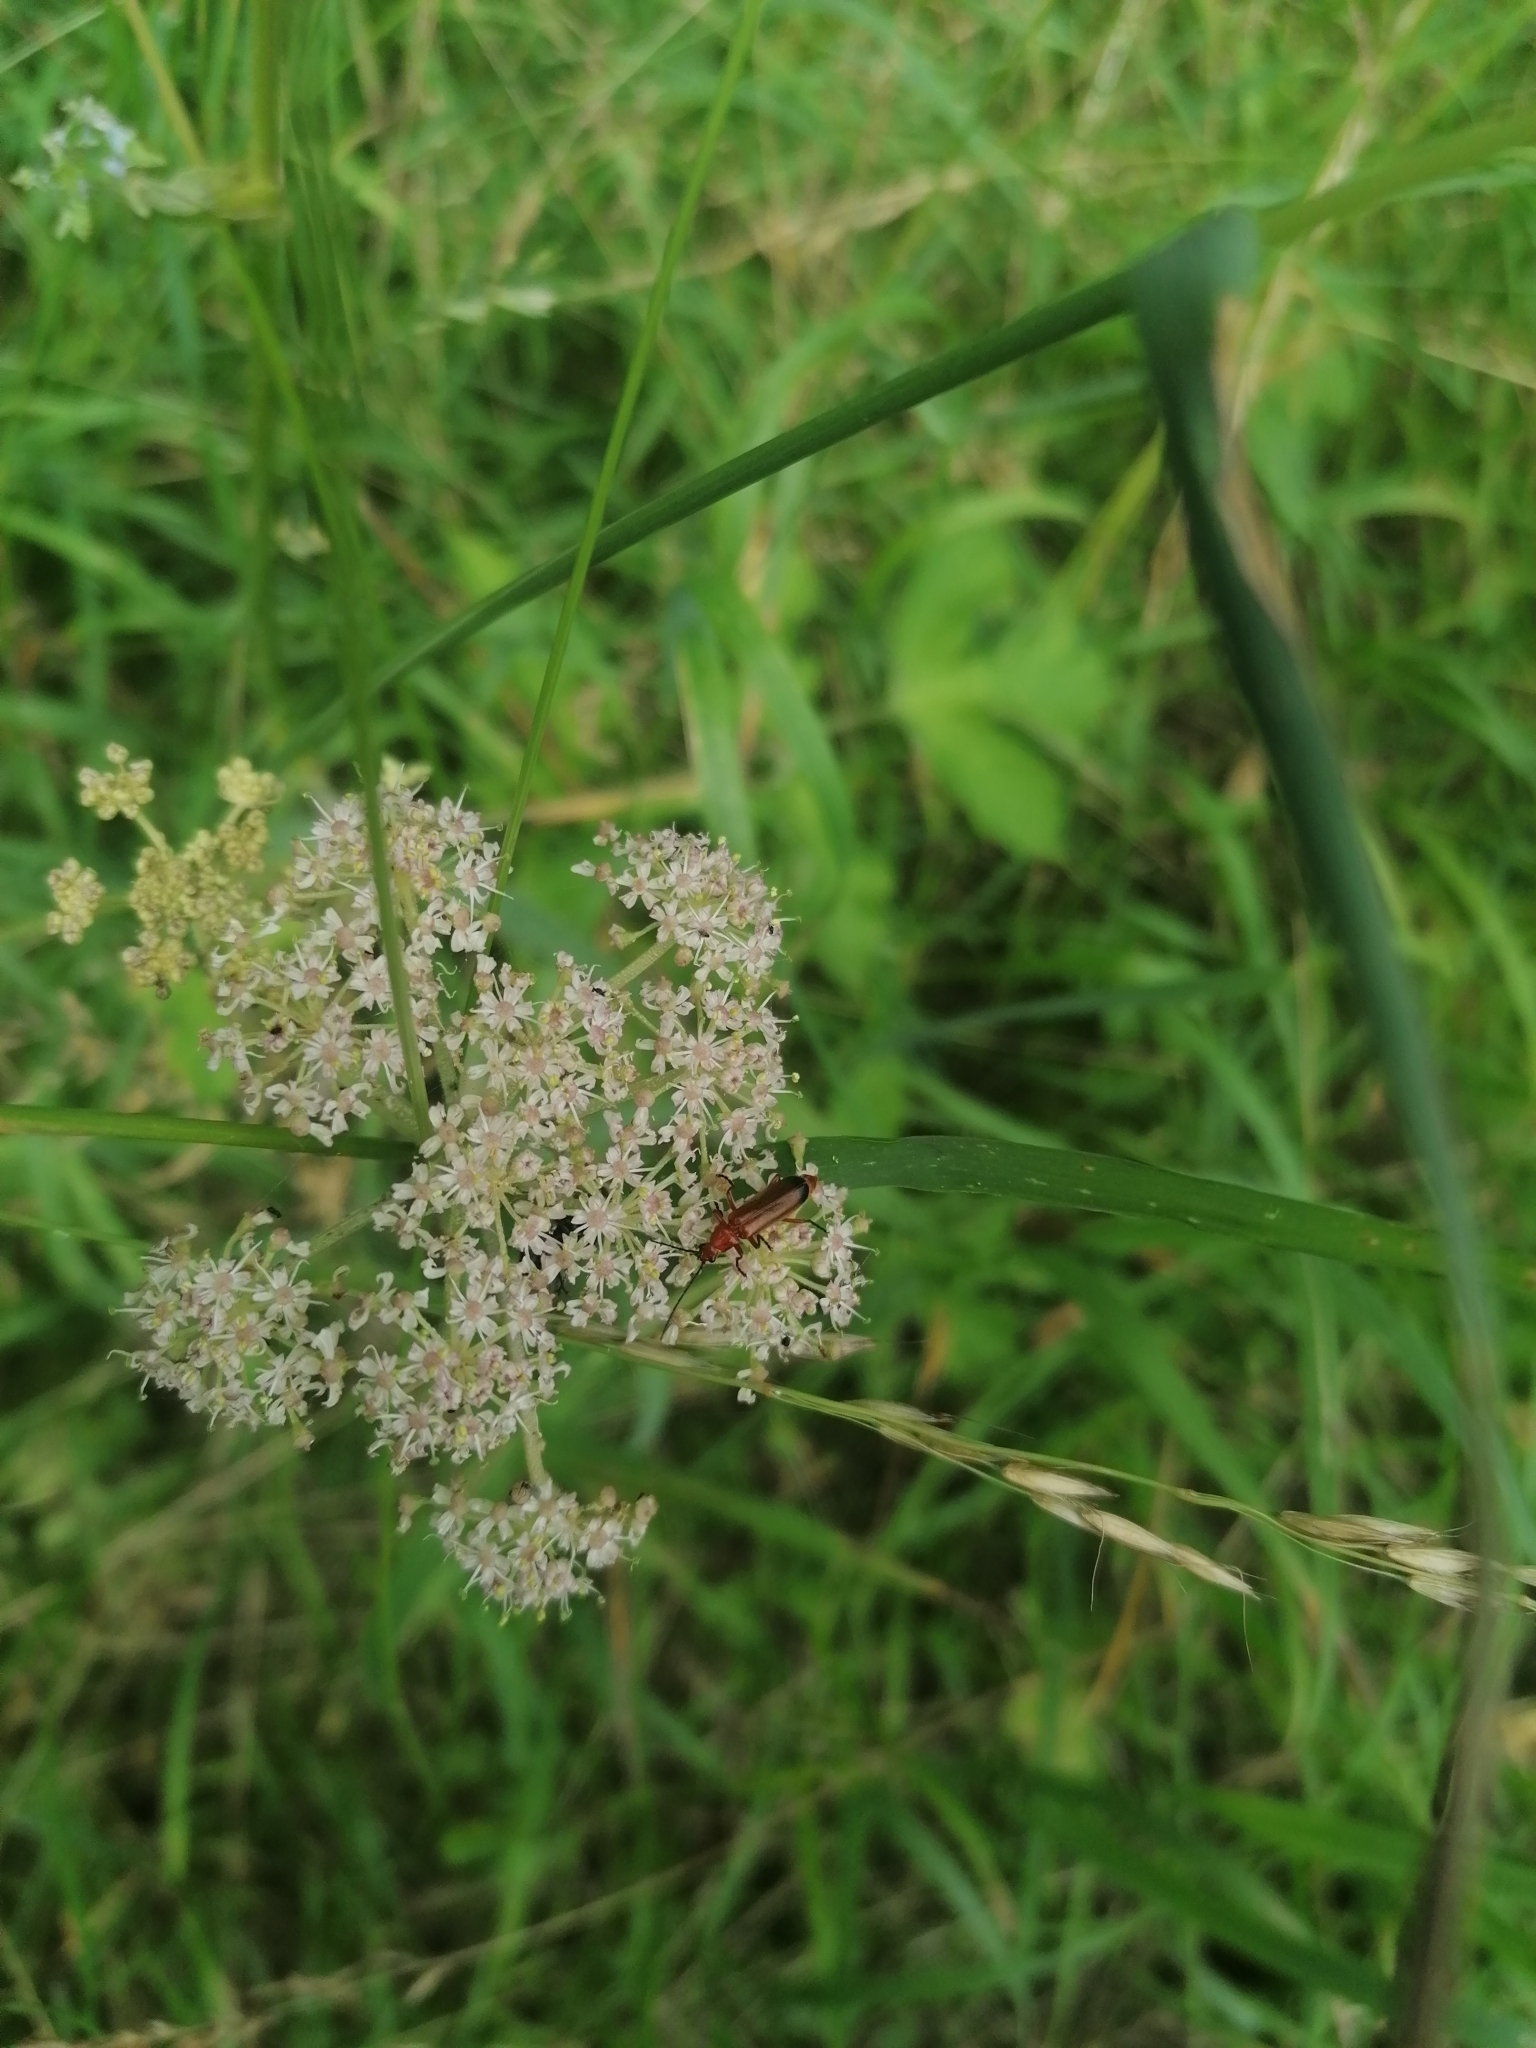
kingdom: Animalia
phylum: Arthropoda
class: Insecta
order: Coleoptera
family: Cantharidae
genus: Rhagonycha
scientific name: Rhagonycha fulva
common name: Common red soldier beetle
